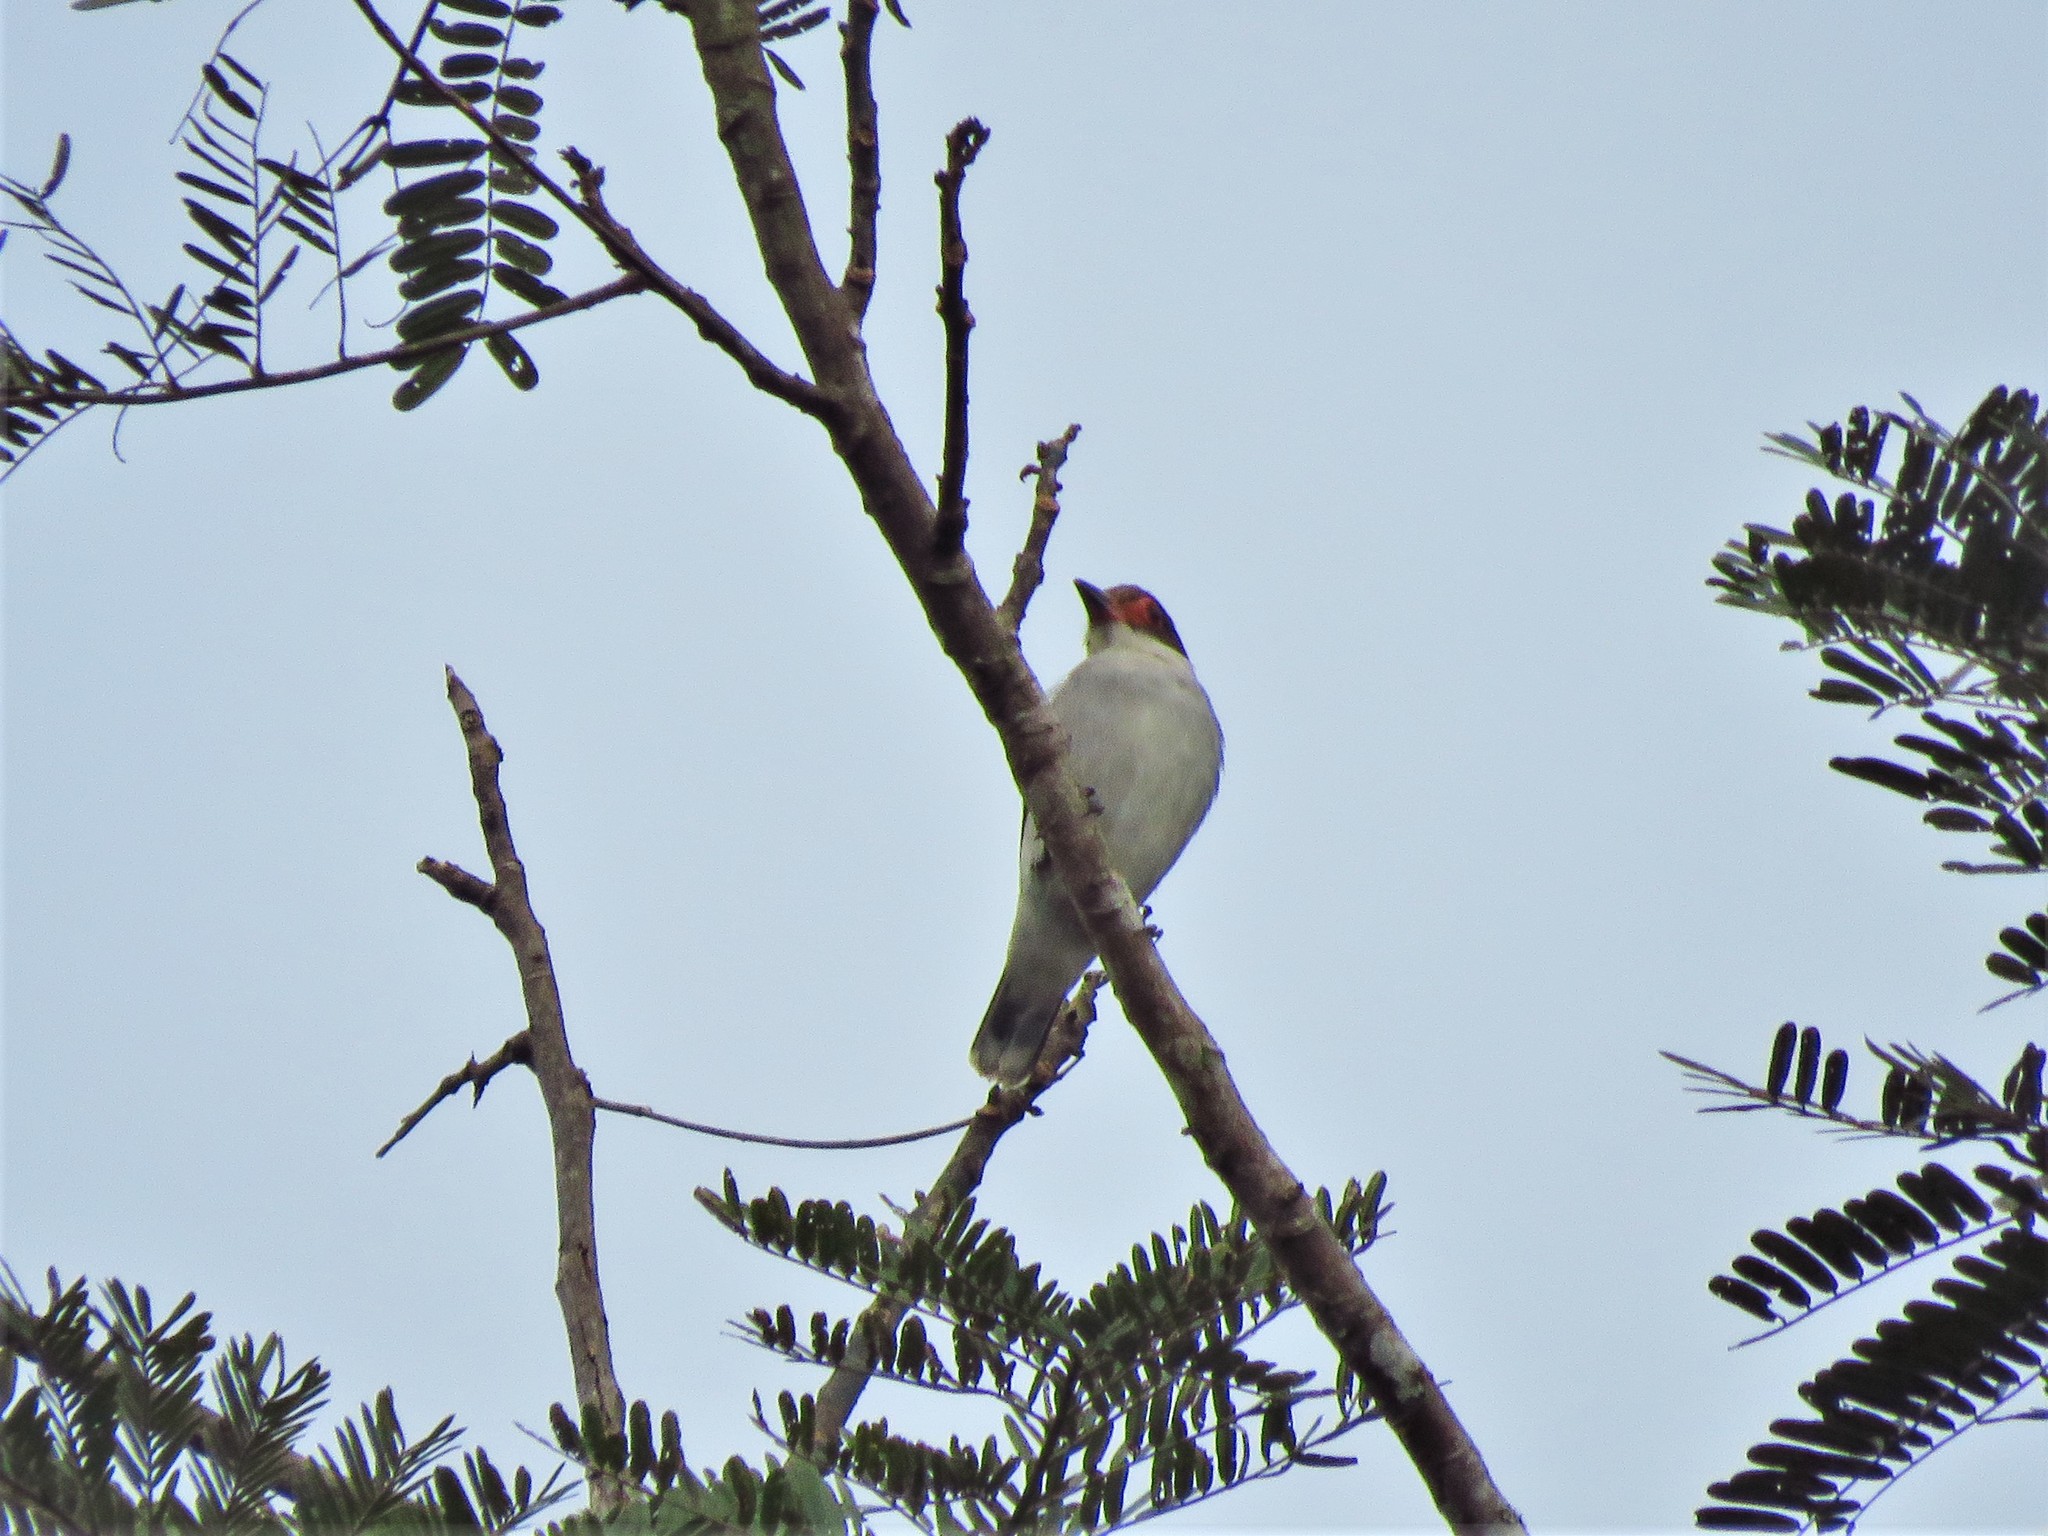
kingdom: Animalia
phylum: Chordata
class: Aves
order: Passeriformes
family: Cotingidae
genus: Tityra
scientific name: Tityra semifasciata
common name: Masked tityra
